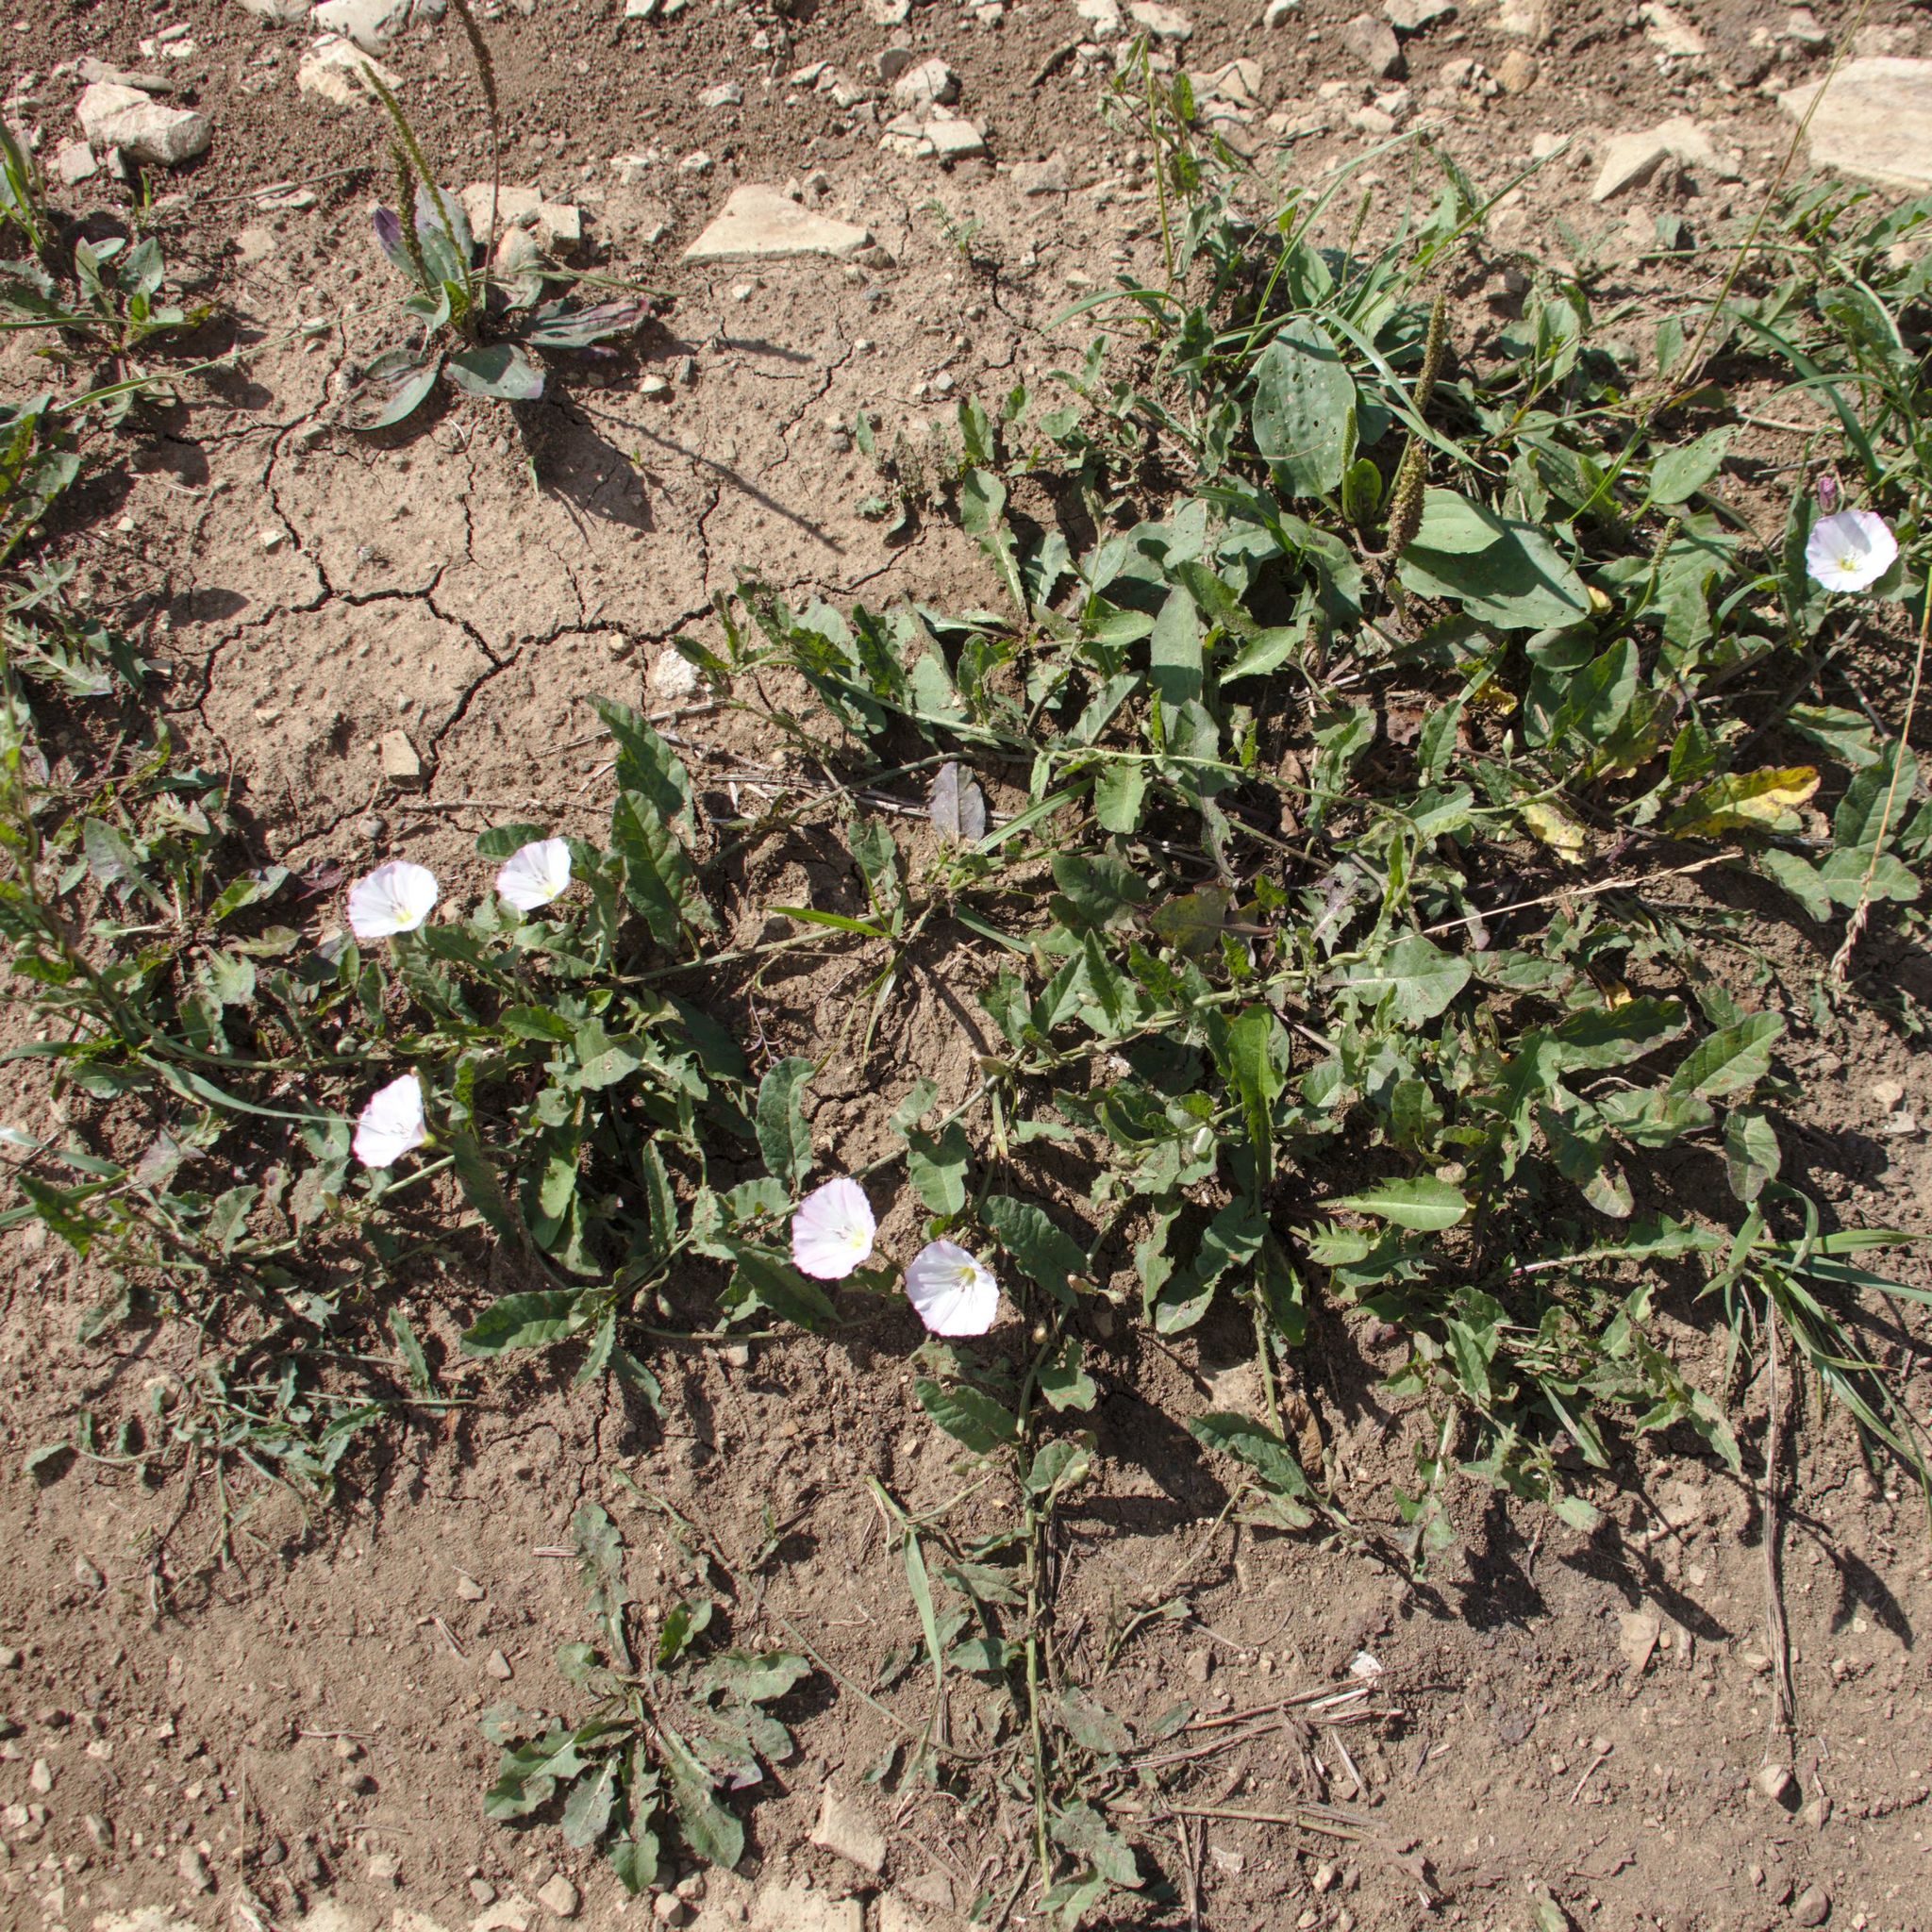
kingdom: Plantae
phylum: Tracheophyta
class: Magnoliopsida
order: Solanales
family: Convolvulaceae
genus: Convolvulus
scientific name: Convolvulus arvensis
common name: Field bindweed
